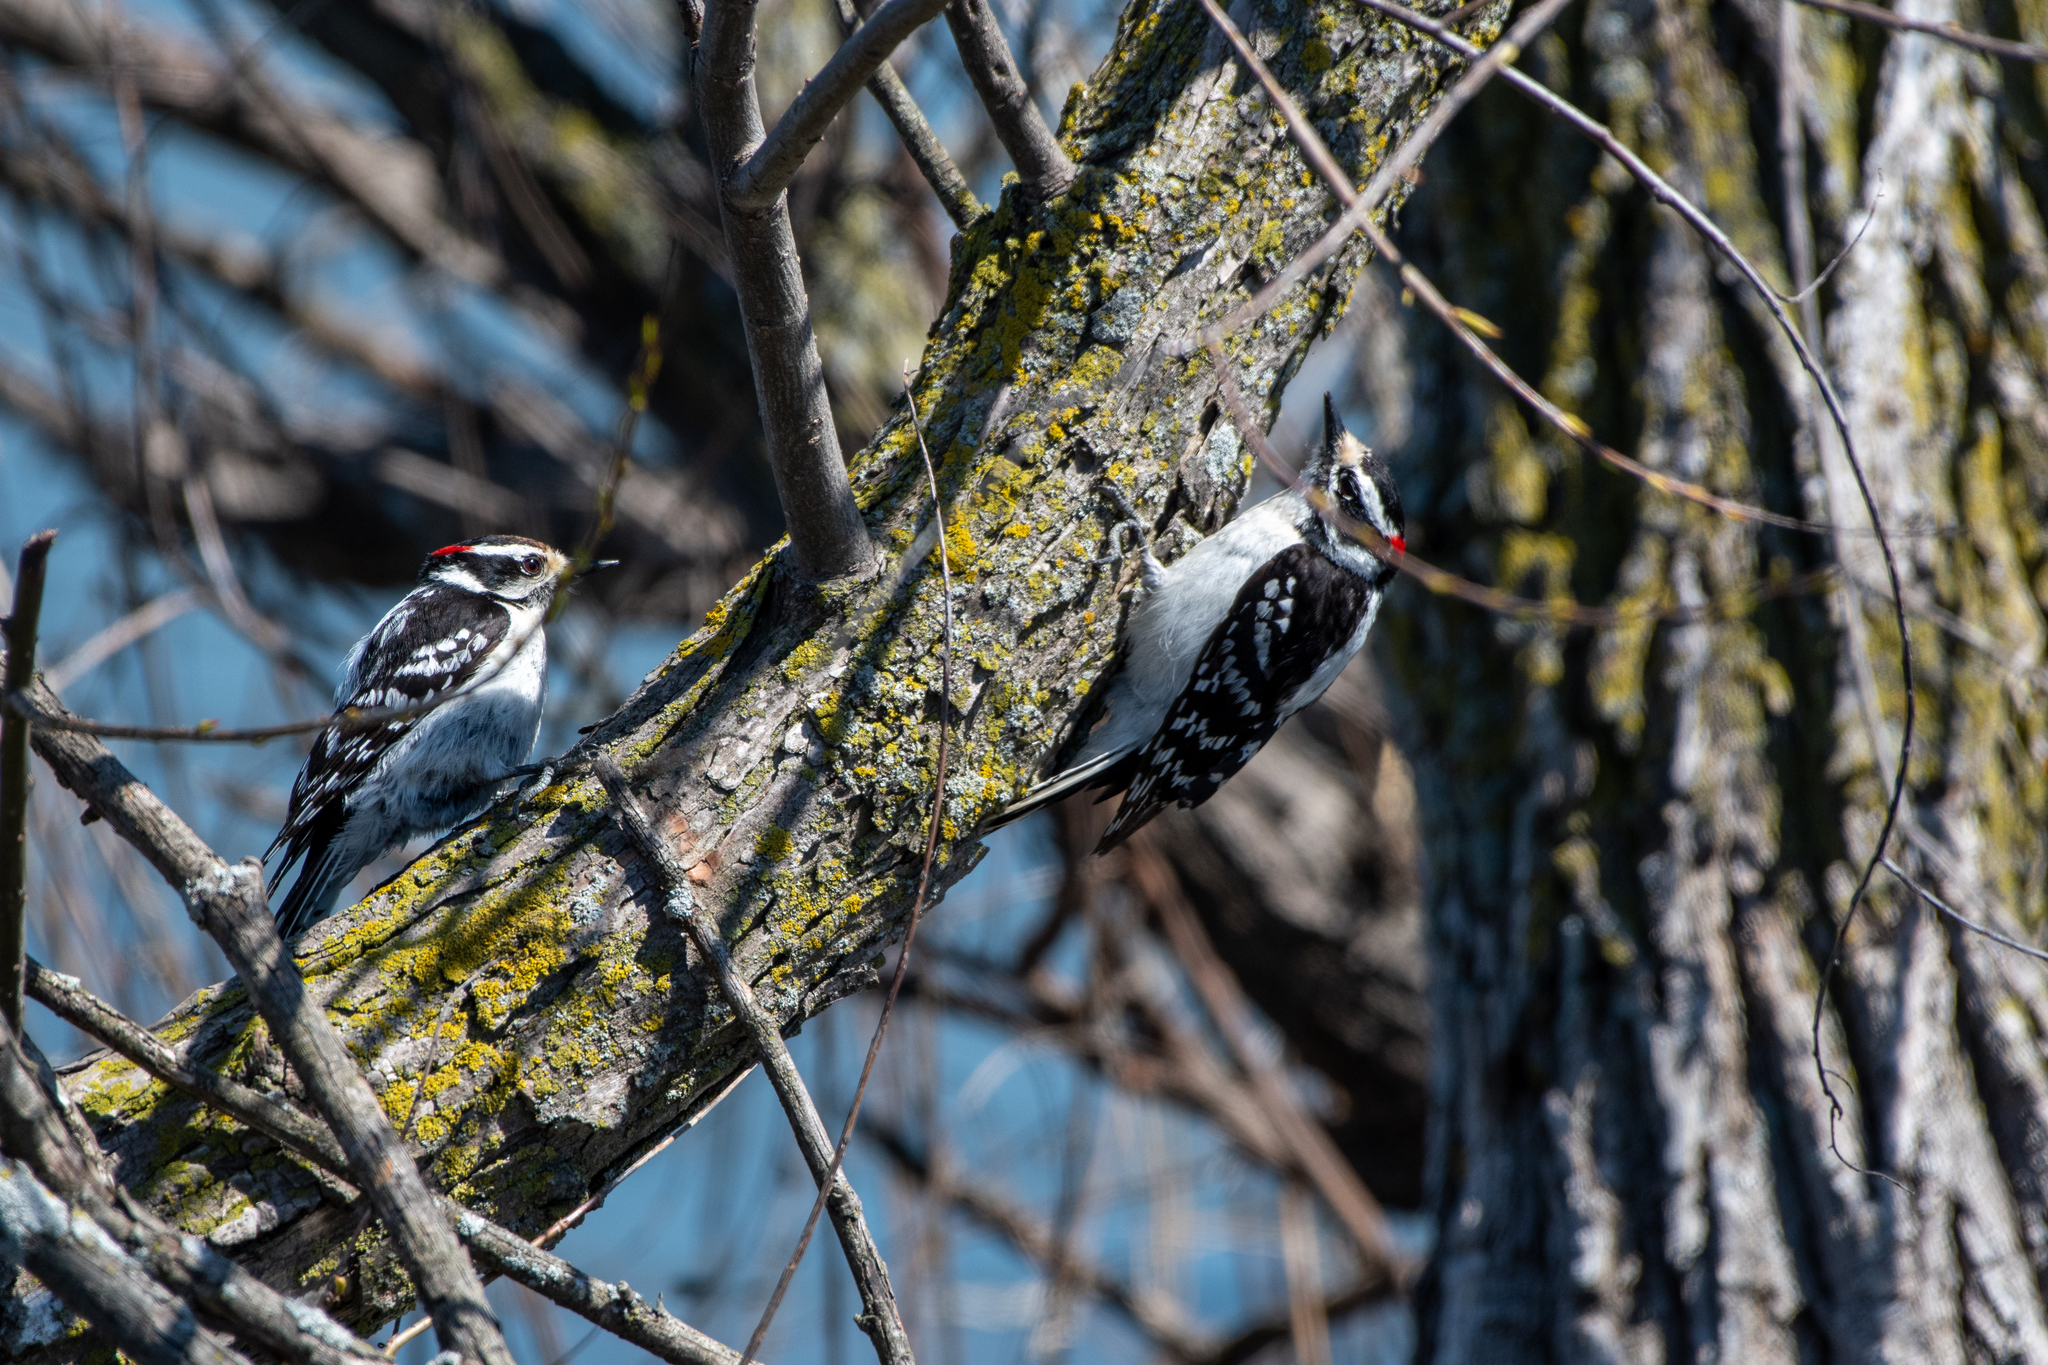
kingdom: Animalia
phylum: Chordata
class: Aves
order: Piciformes
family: Picidae
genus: Dryobates
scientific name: Dryobates pubescens
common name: Downy woodpecker
